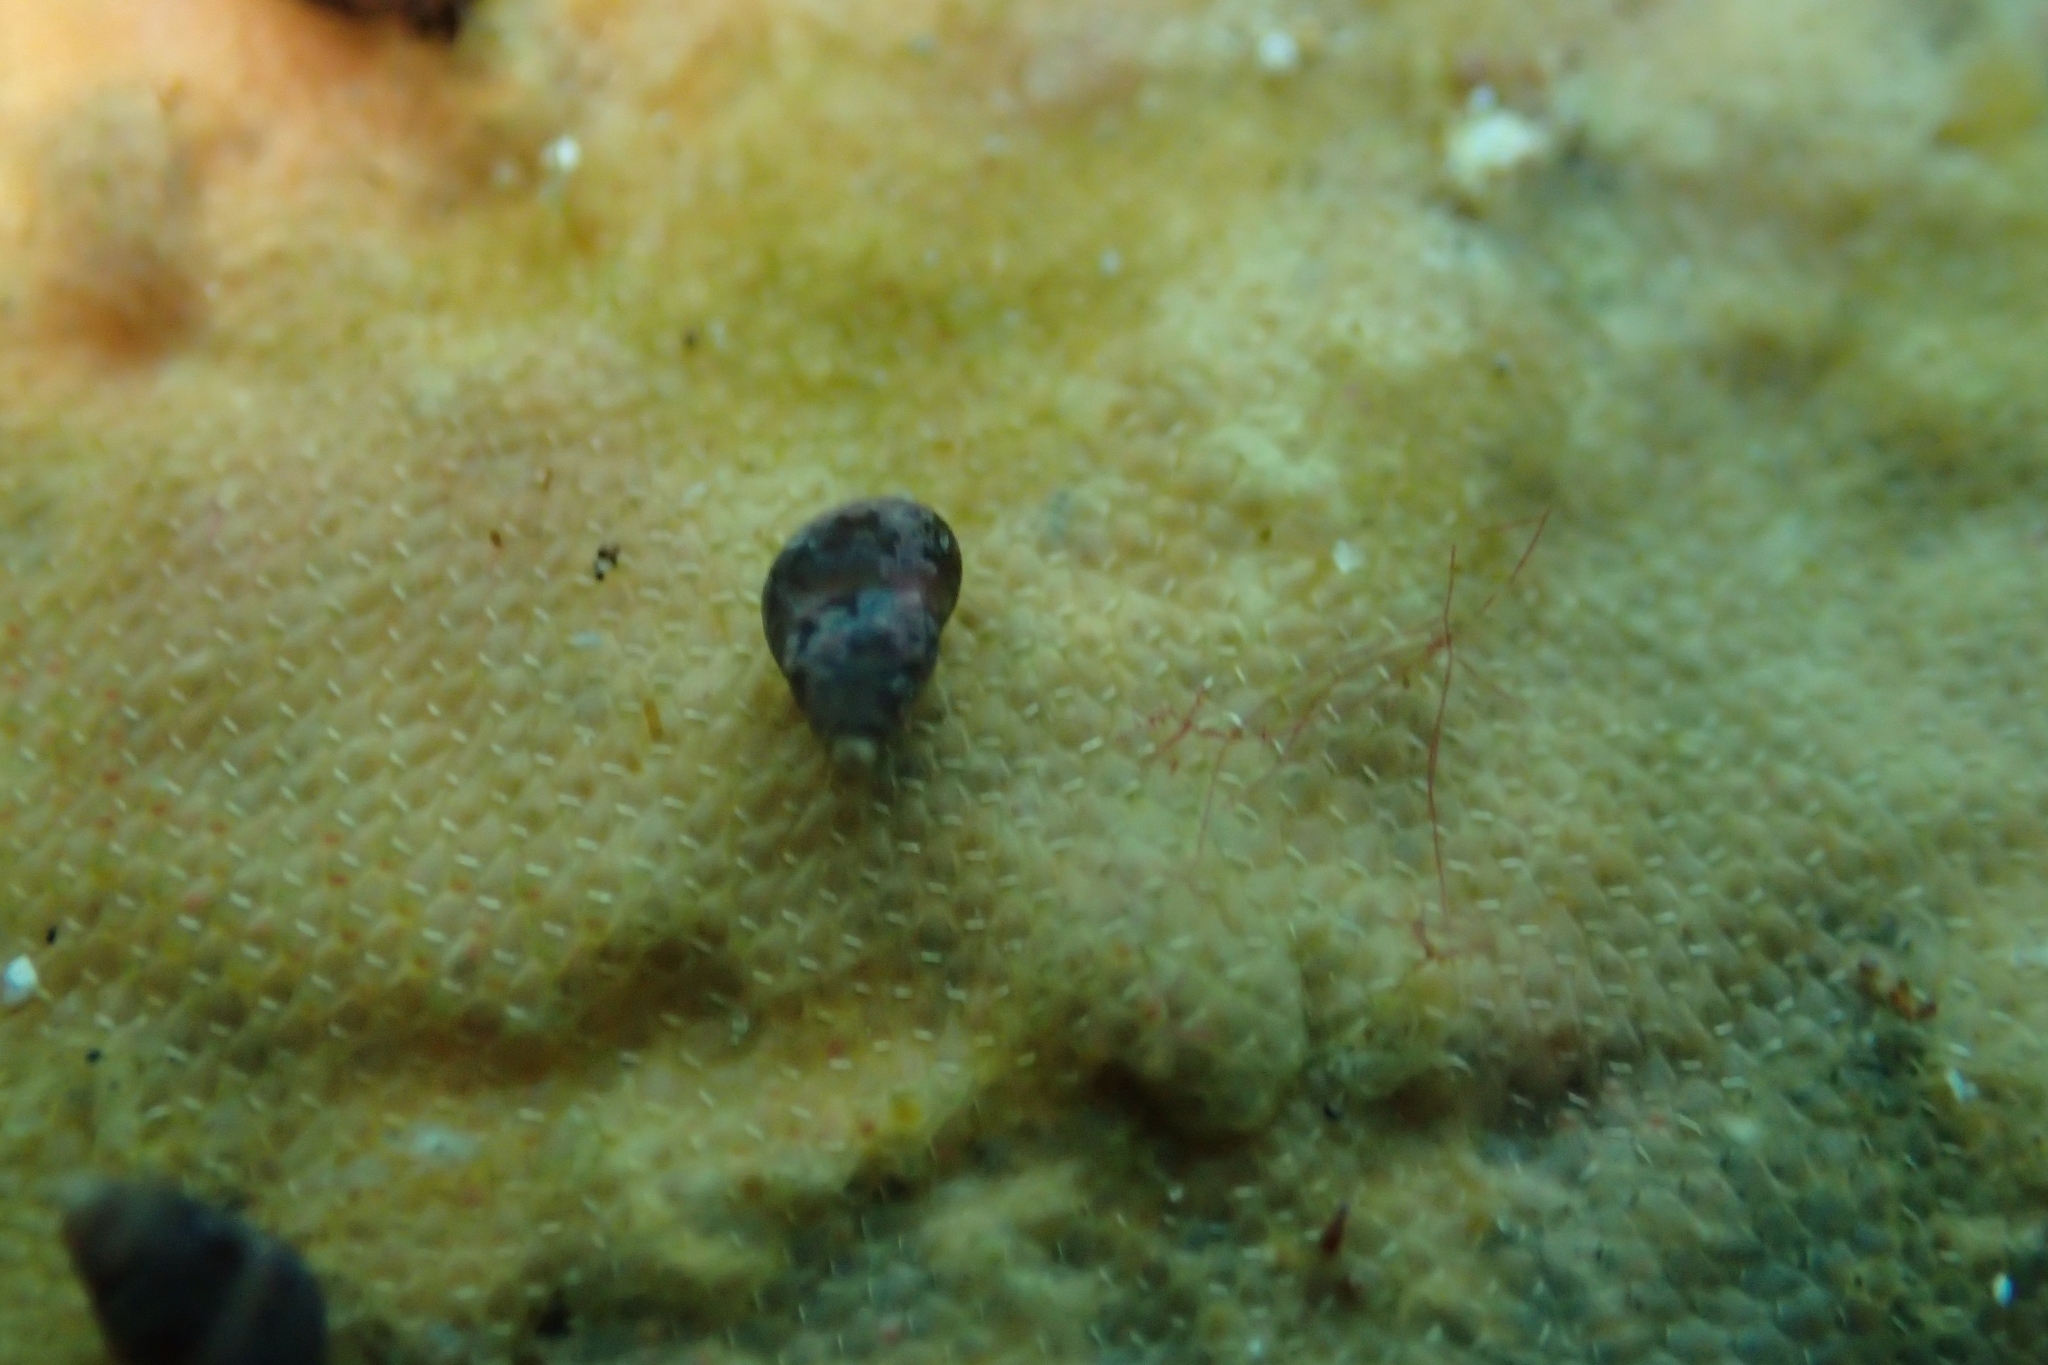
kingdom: Animalia
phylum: Mollusca
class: Gastropoda
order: Littorinimorpha
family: Eatoniellidae
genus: Eatoniella
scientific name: Eatoniella
